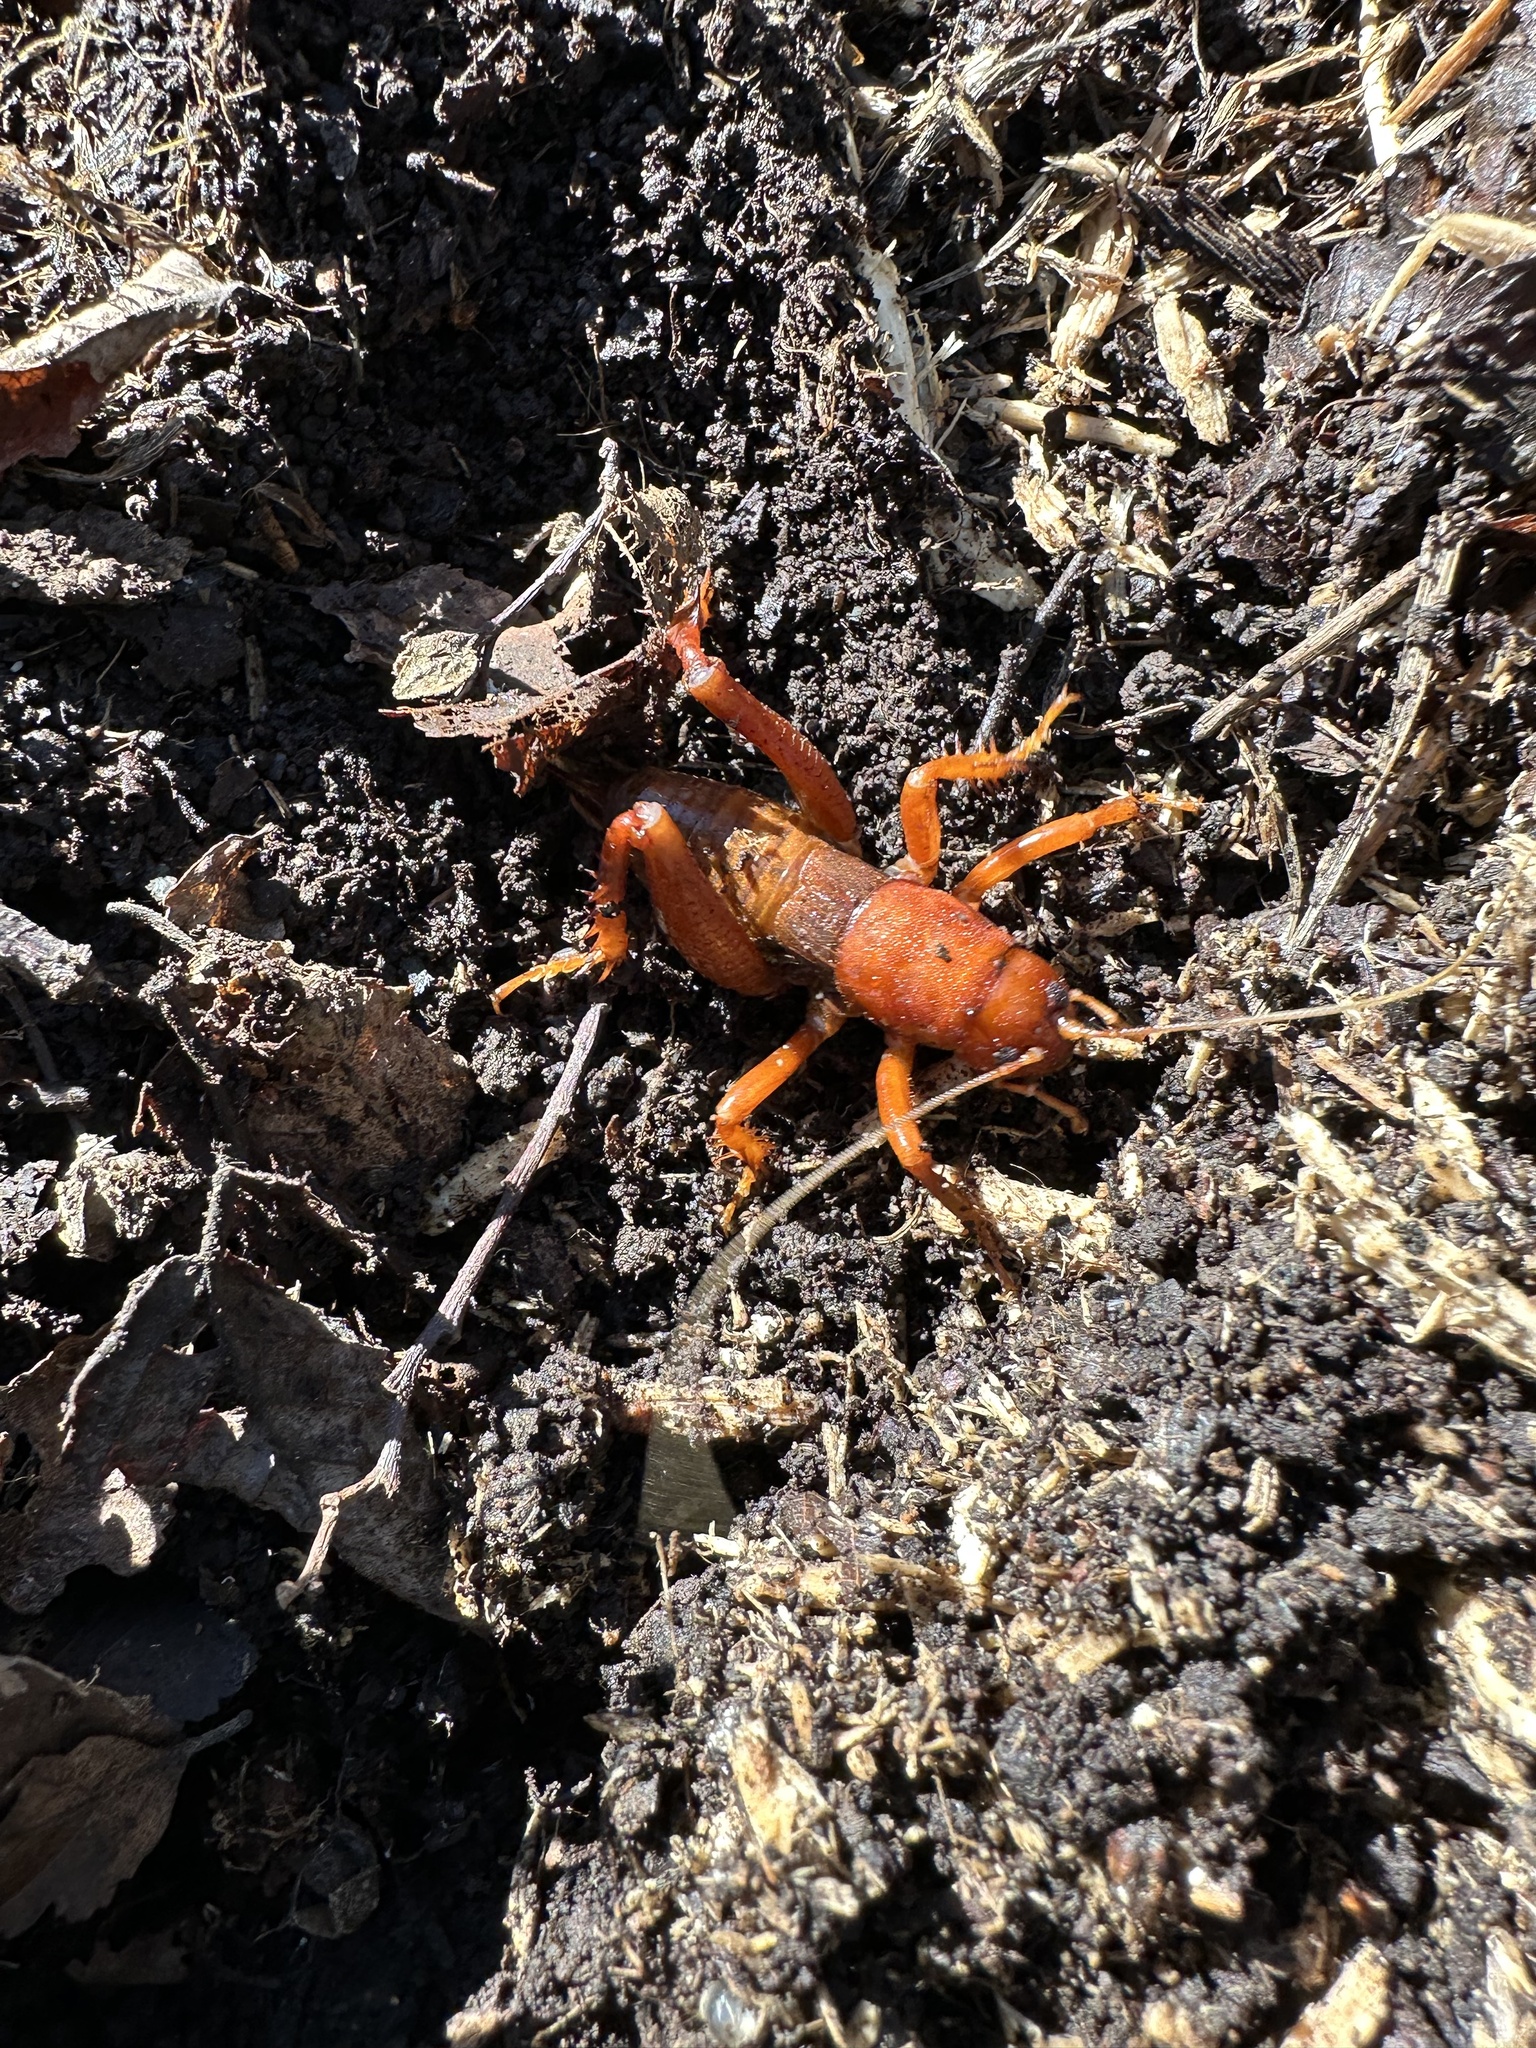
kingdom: Animalia
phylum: Arthropoda
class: Insecta
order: Orthoptera
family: Anostostomatidae
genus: Cratomelus
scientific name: Cratomelus armatus
